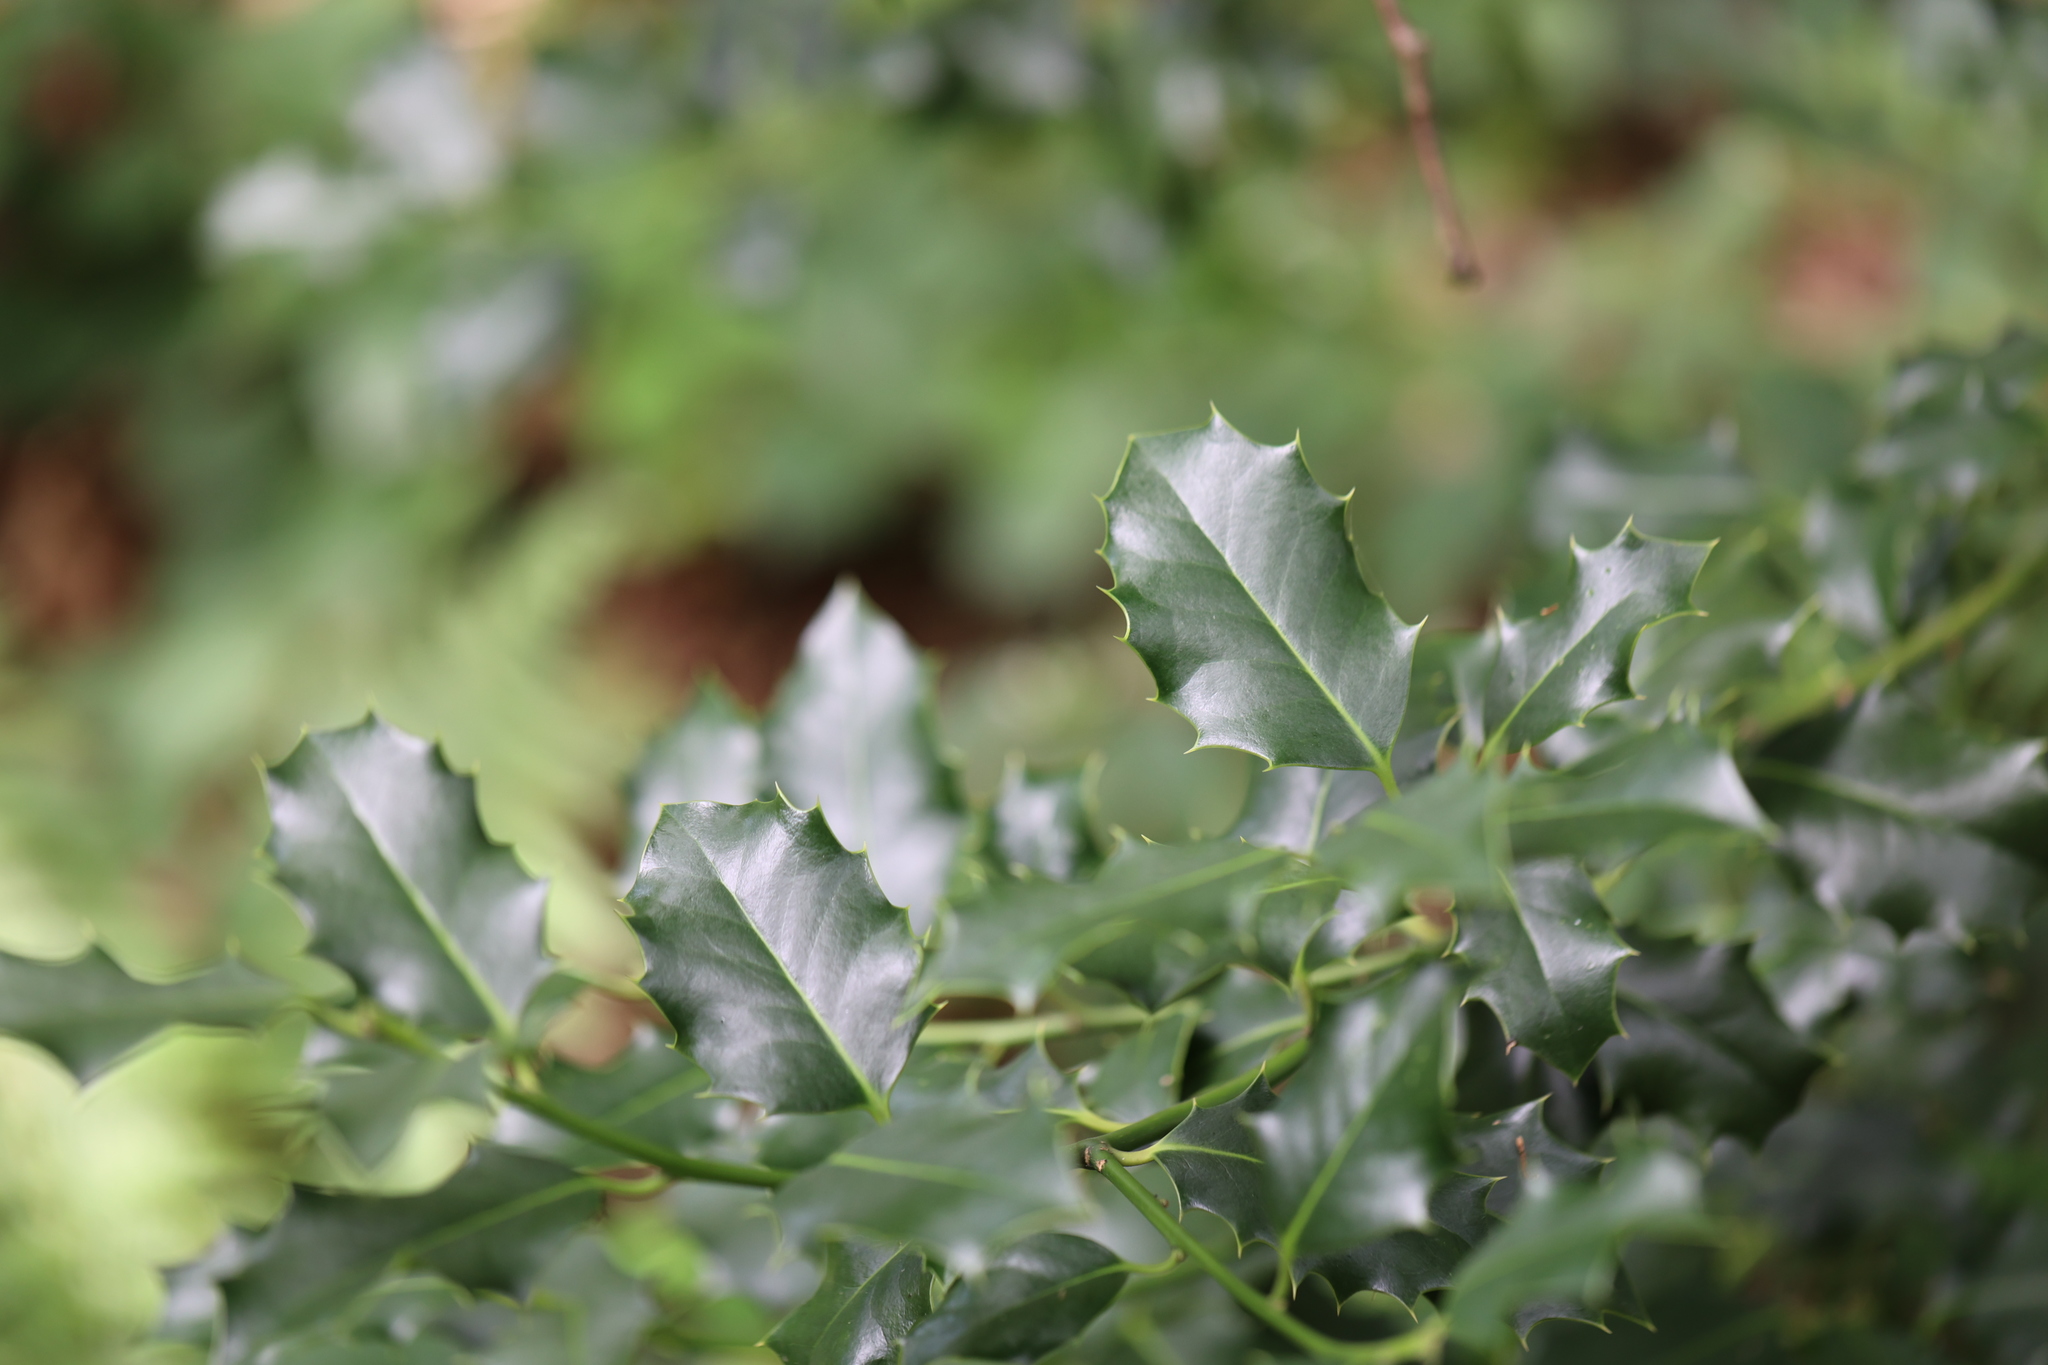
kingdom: Plantae
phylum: Tracheophyta
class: Magnoliopsida
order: Aquifoliales
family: Aquifoliaceae
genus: Ilex
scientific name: Ilex aquifolium
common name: English holly
